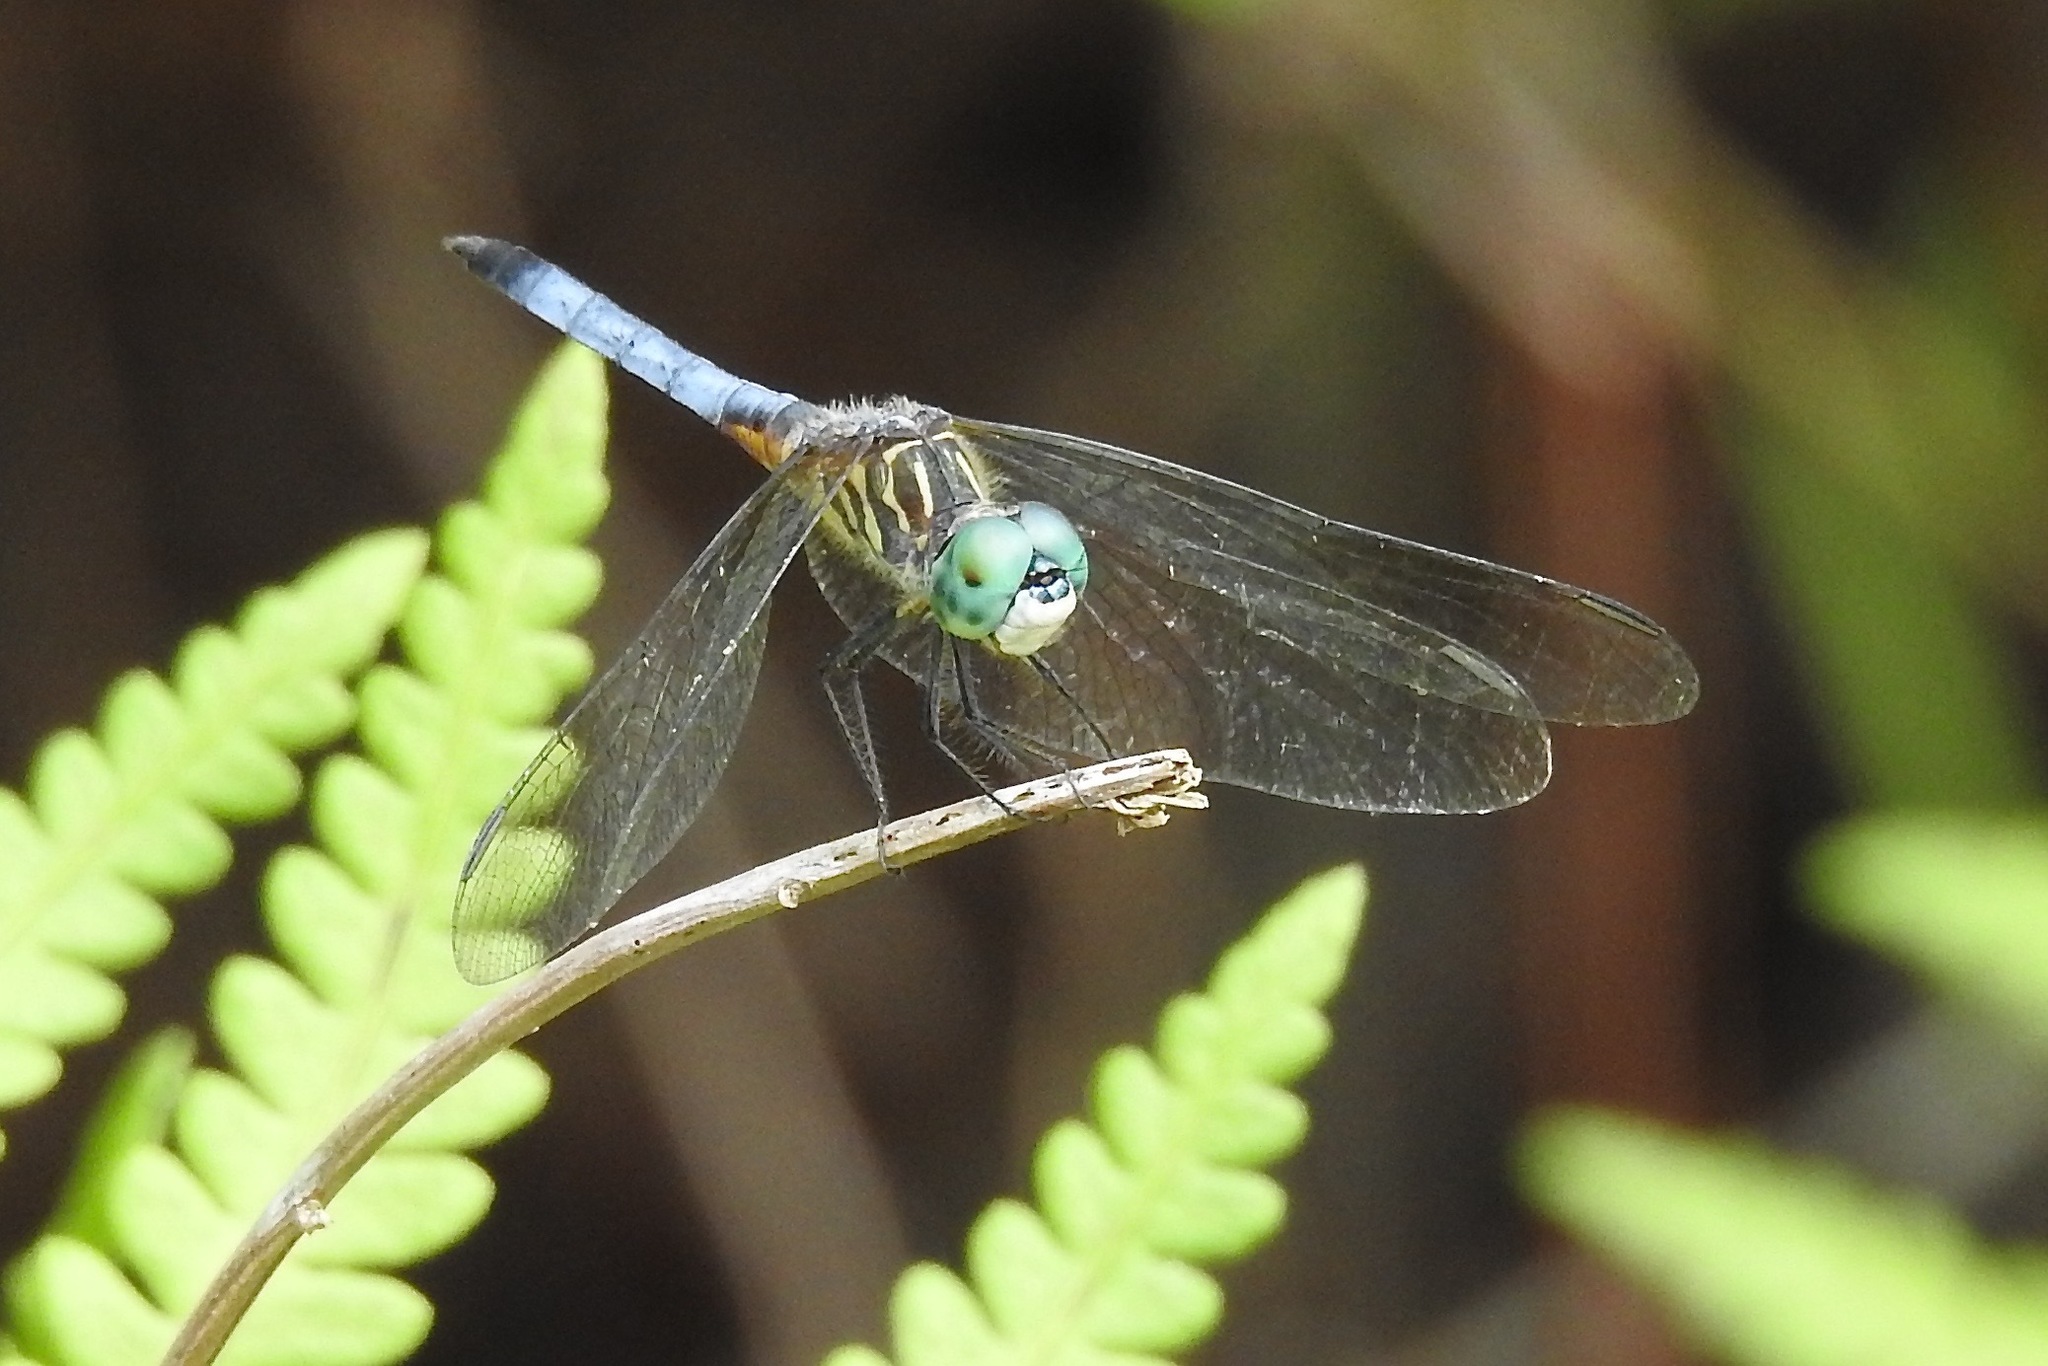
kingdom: Animalia
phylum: Arthropoda
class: Insecta
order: Odonata
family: Libellulidae
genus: Pachydiplax
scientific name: Pachydiplax longipennis
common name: Blue dasher
